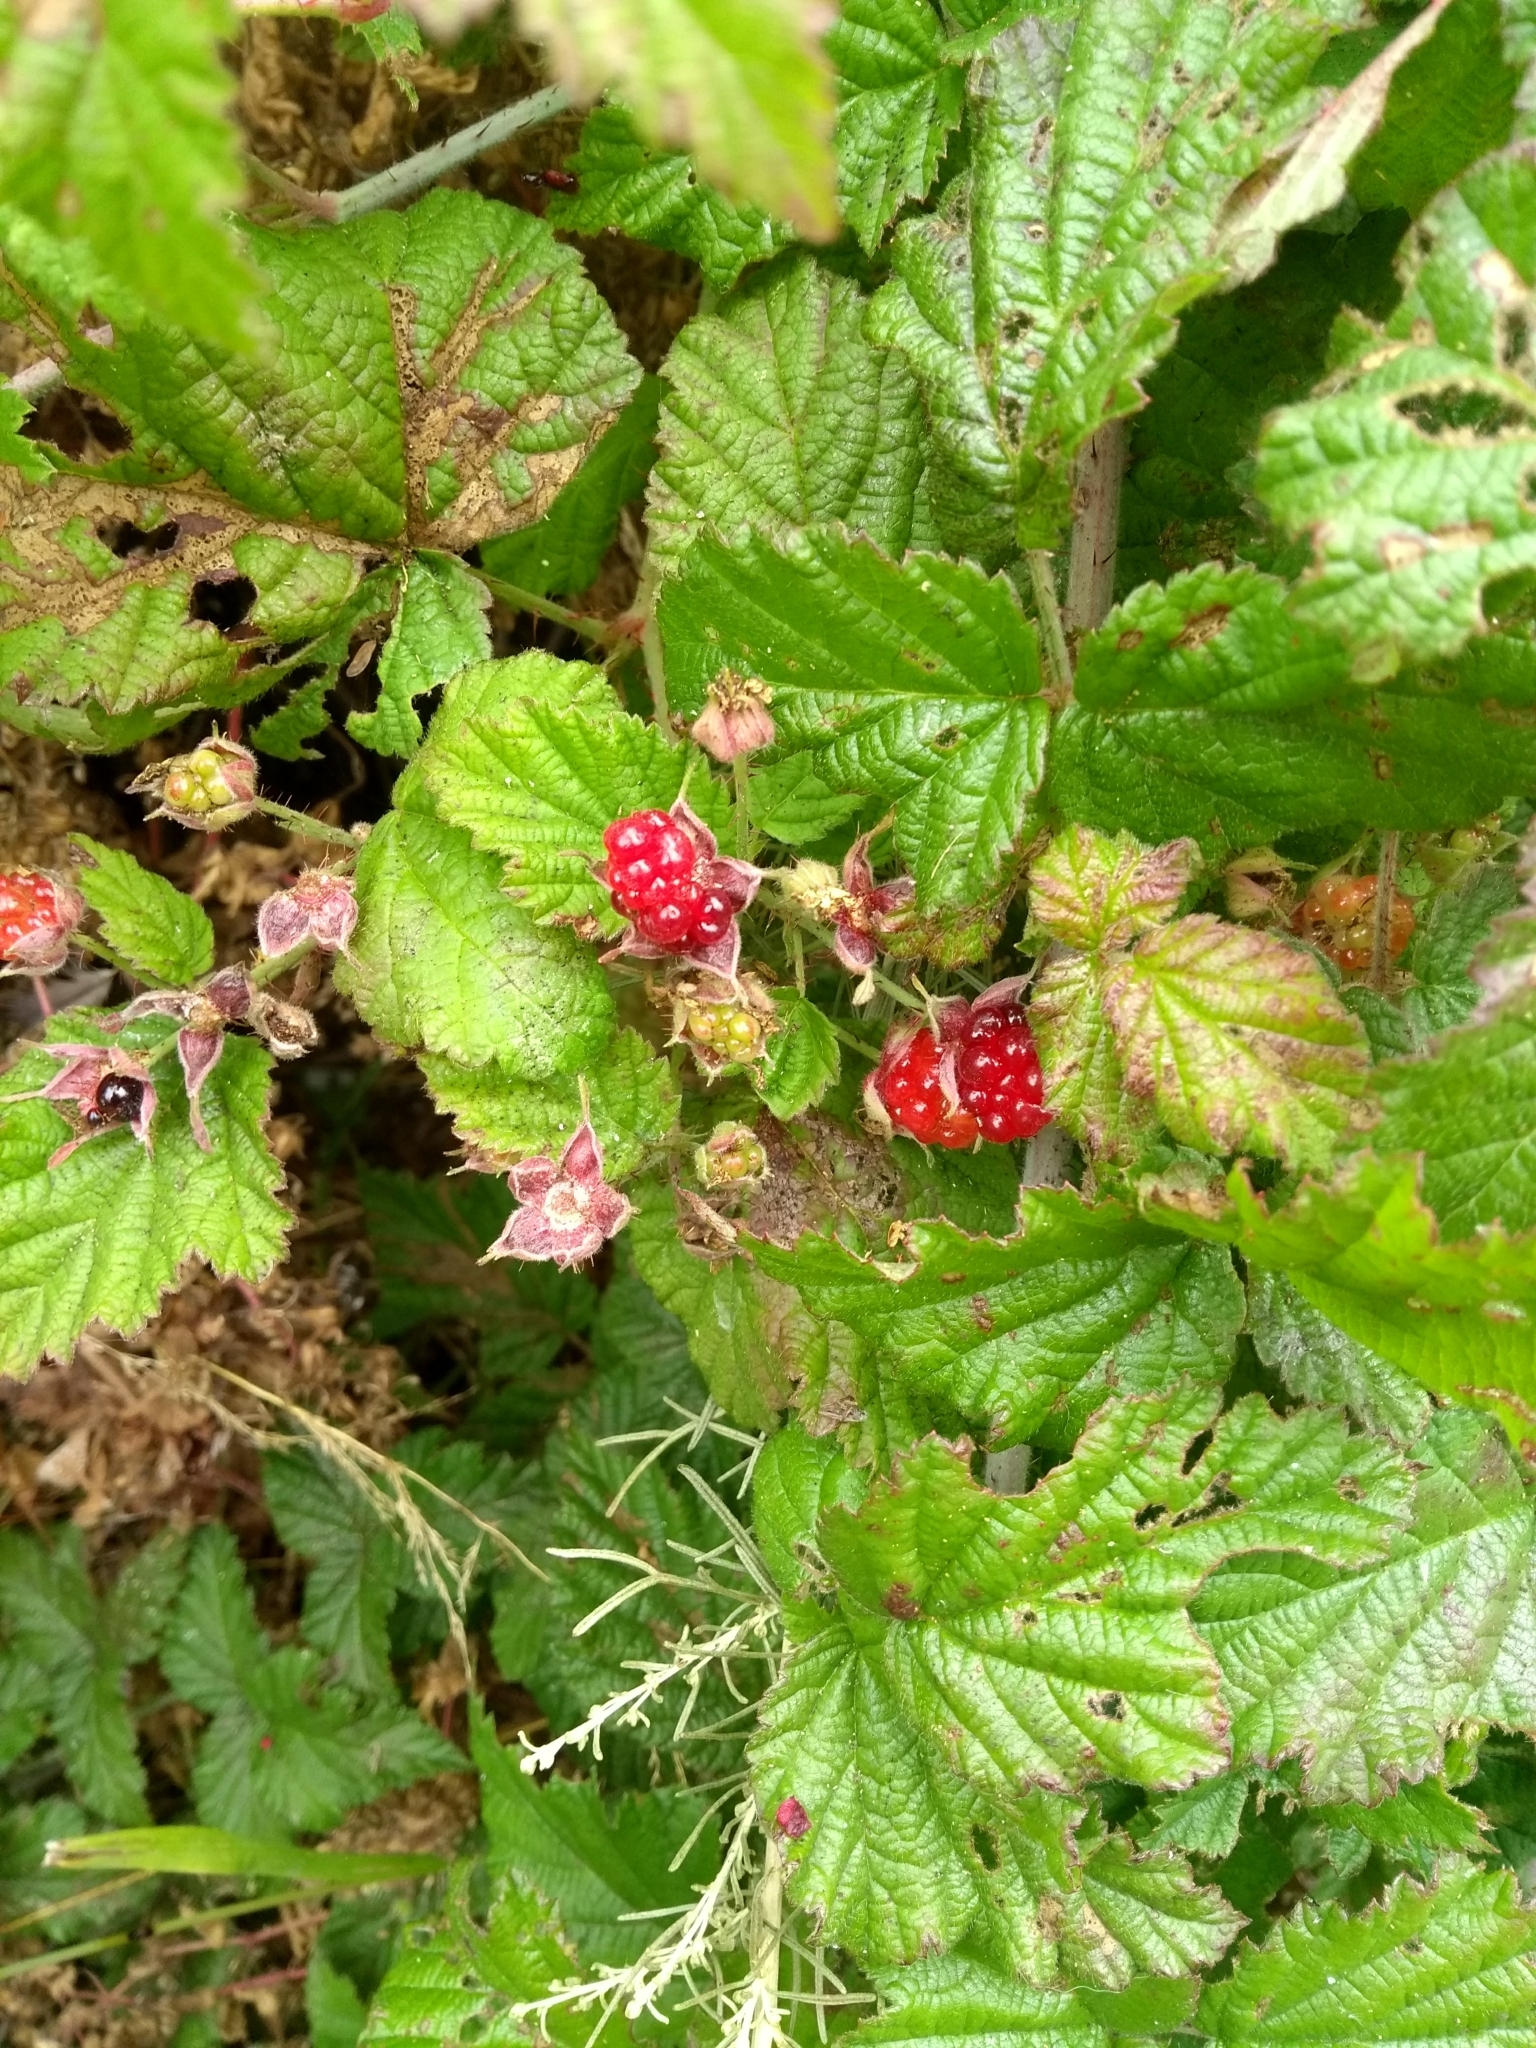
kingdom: Plantae
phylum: Tracheophyta
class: Magnoliopsida
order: Rosales
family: Rosaceae
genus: Rubus
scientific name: Rubus ursinus
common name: Pacific blackberry
